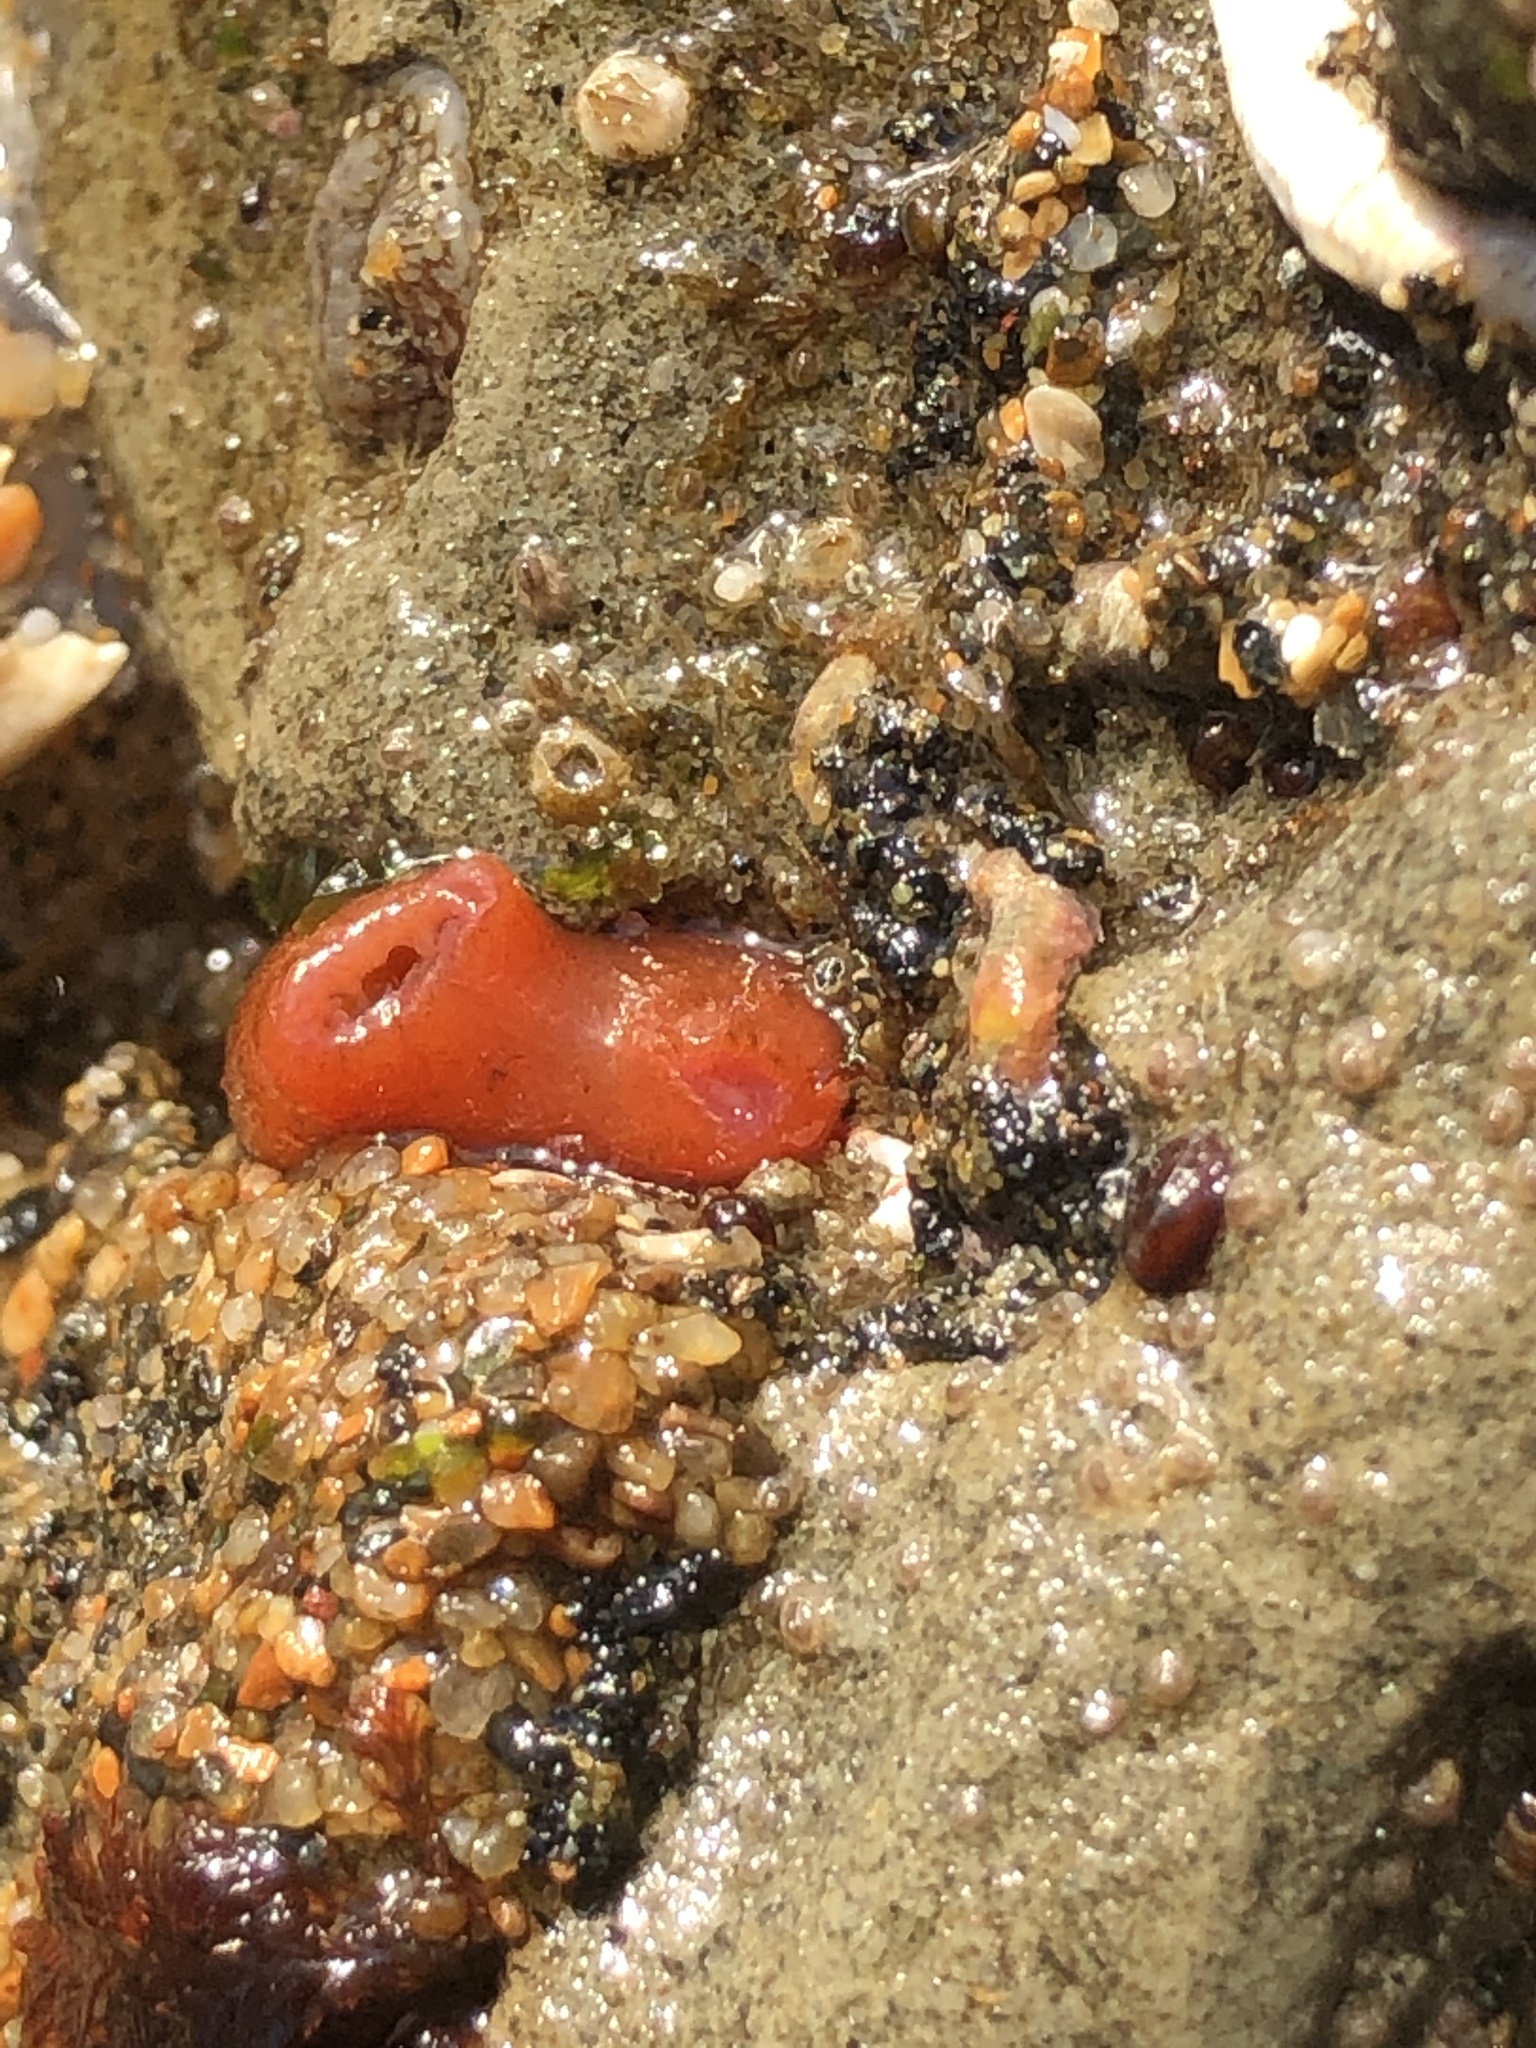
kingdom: Animalia
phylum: Mollusca
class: Bivalvia
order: Adapedonta
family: Hiatellidae
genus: Hiatella
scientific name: Hiatella arctica
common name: Arctic hiatella
